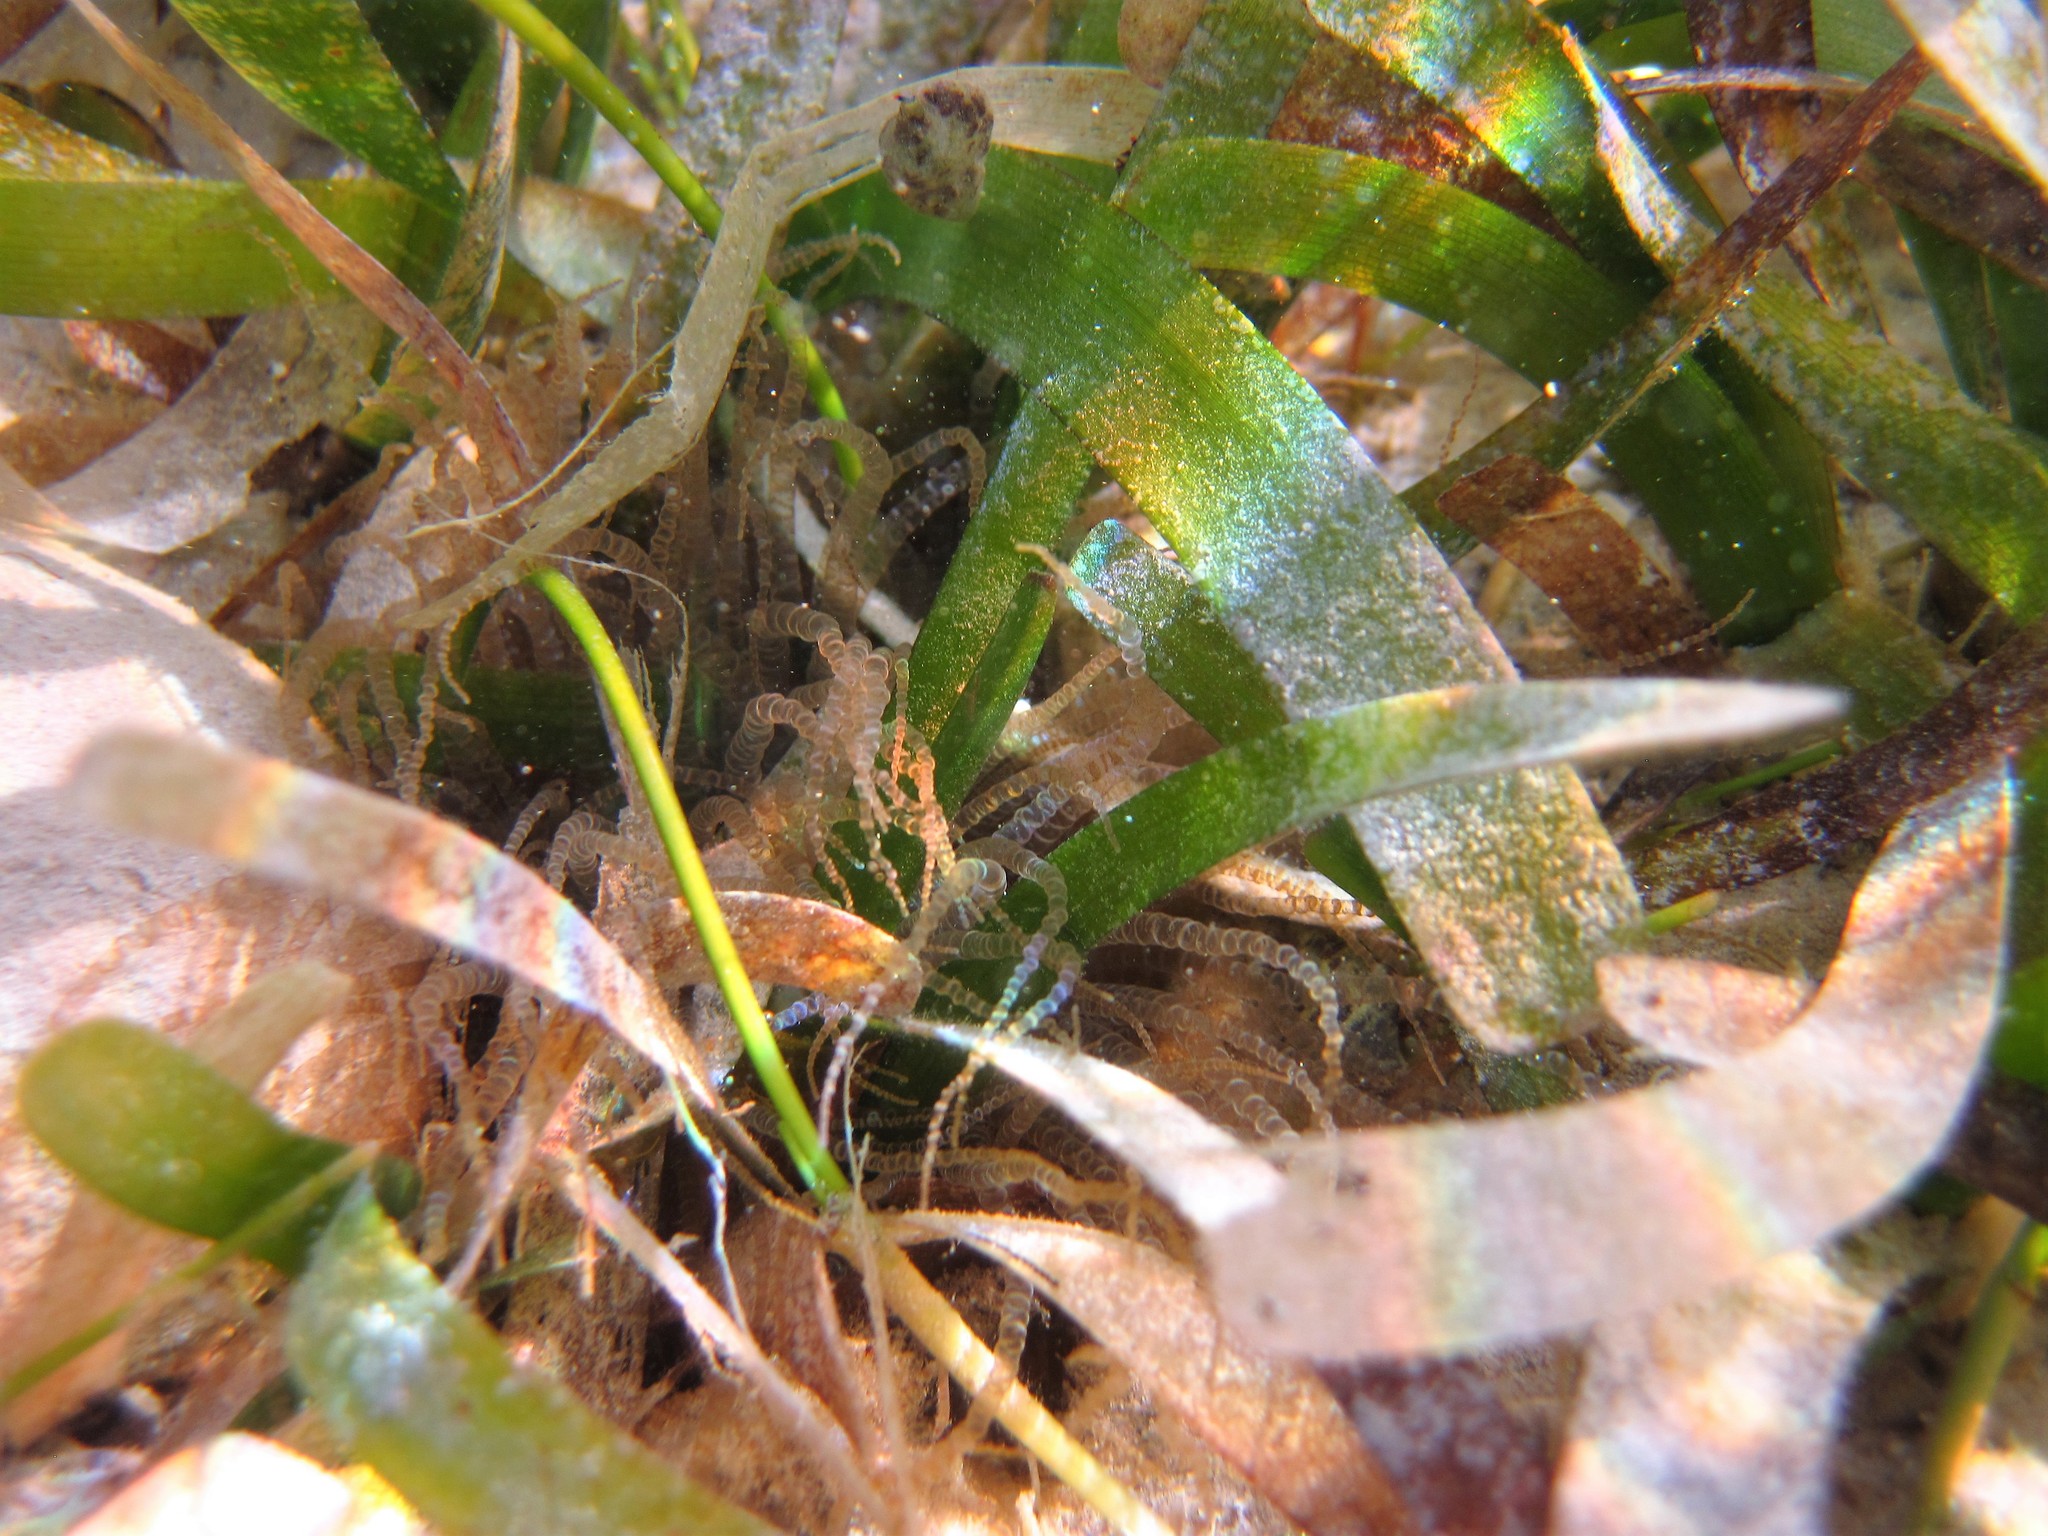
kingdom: Animalia
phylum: Cnidaria
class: Anthozoa
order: Actiniaria
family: Aiptasiidae
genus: Bartholomea
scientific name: Bartholomea annulata
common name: Corkscrew anemone
